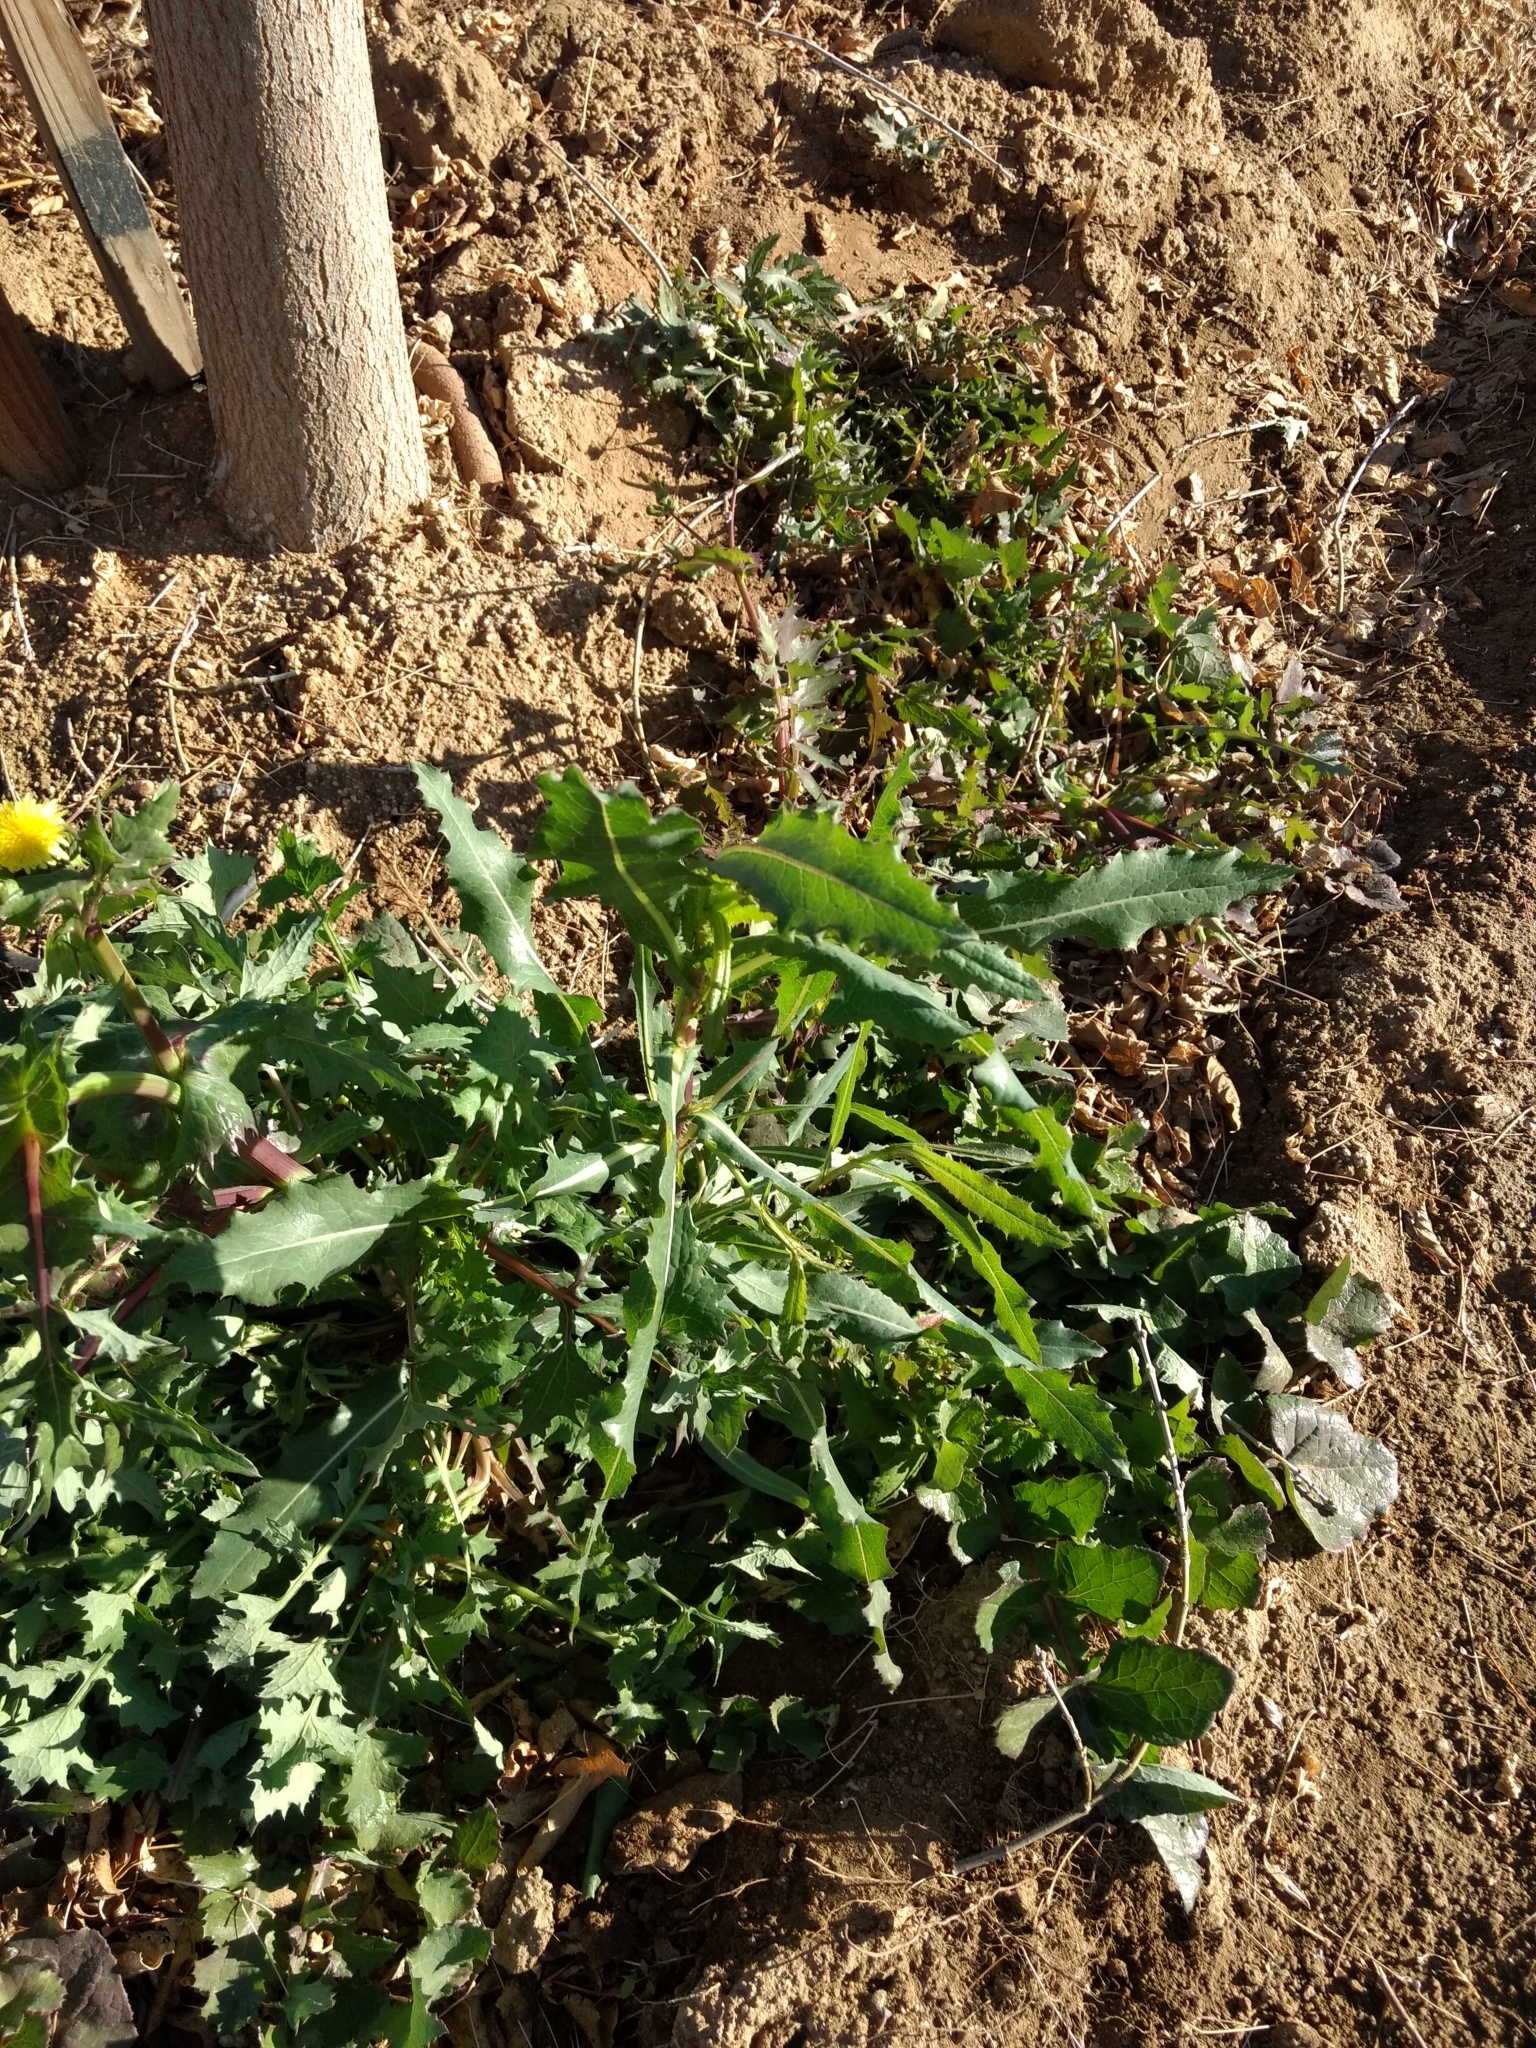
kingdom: Plantae
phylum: Tracheophyta
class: Magnoliopsida
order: Asterales
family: Asteraceae
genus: Lactuca
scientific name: Lactuca serriola
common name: Prickly lettuce
